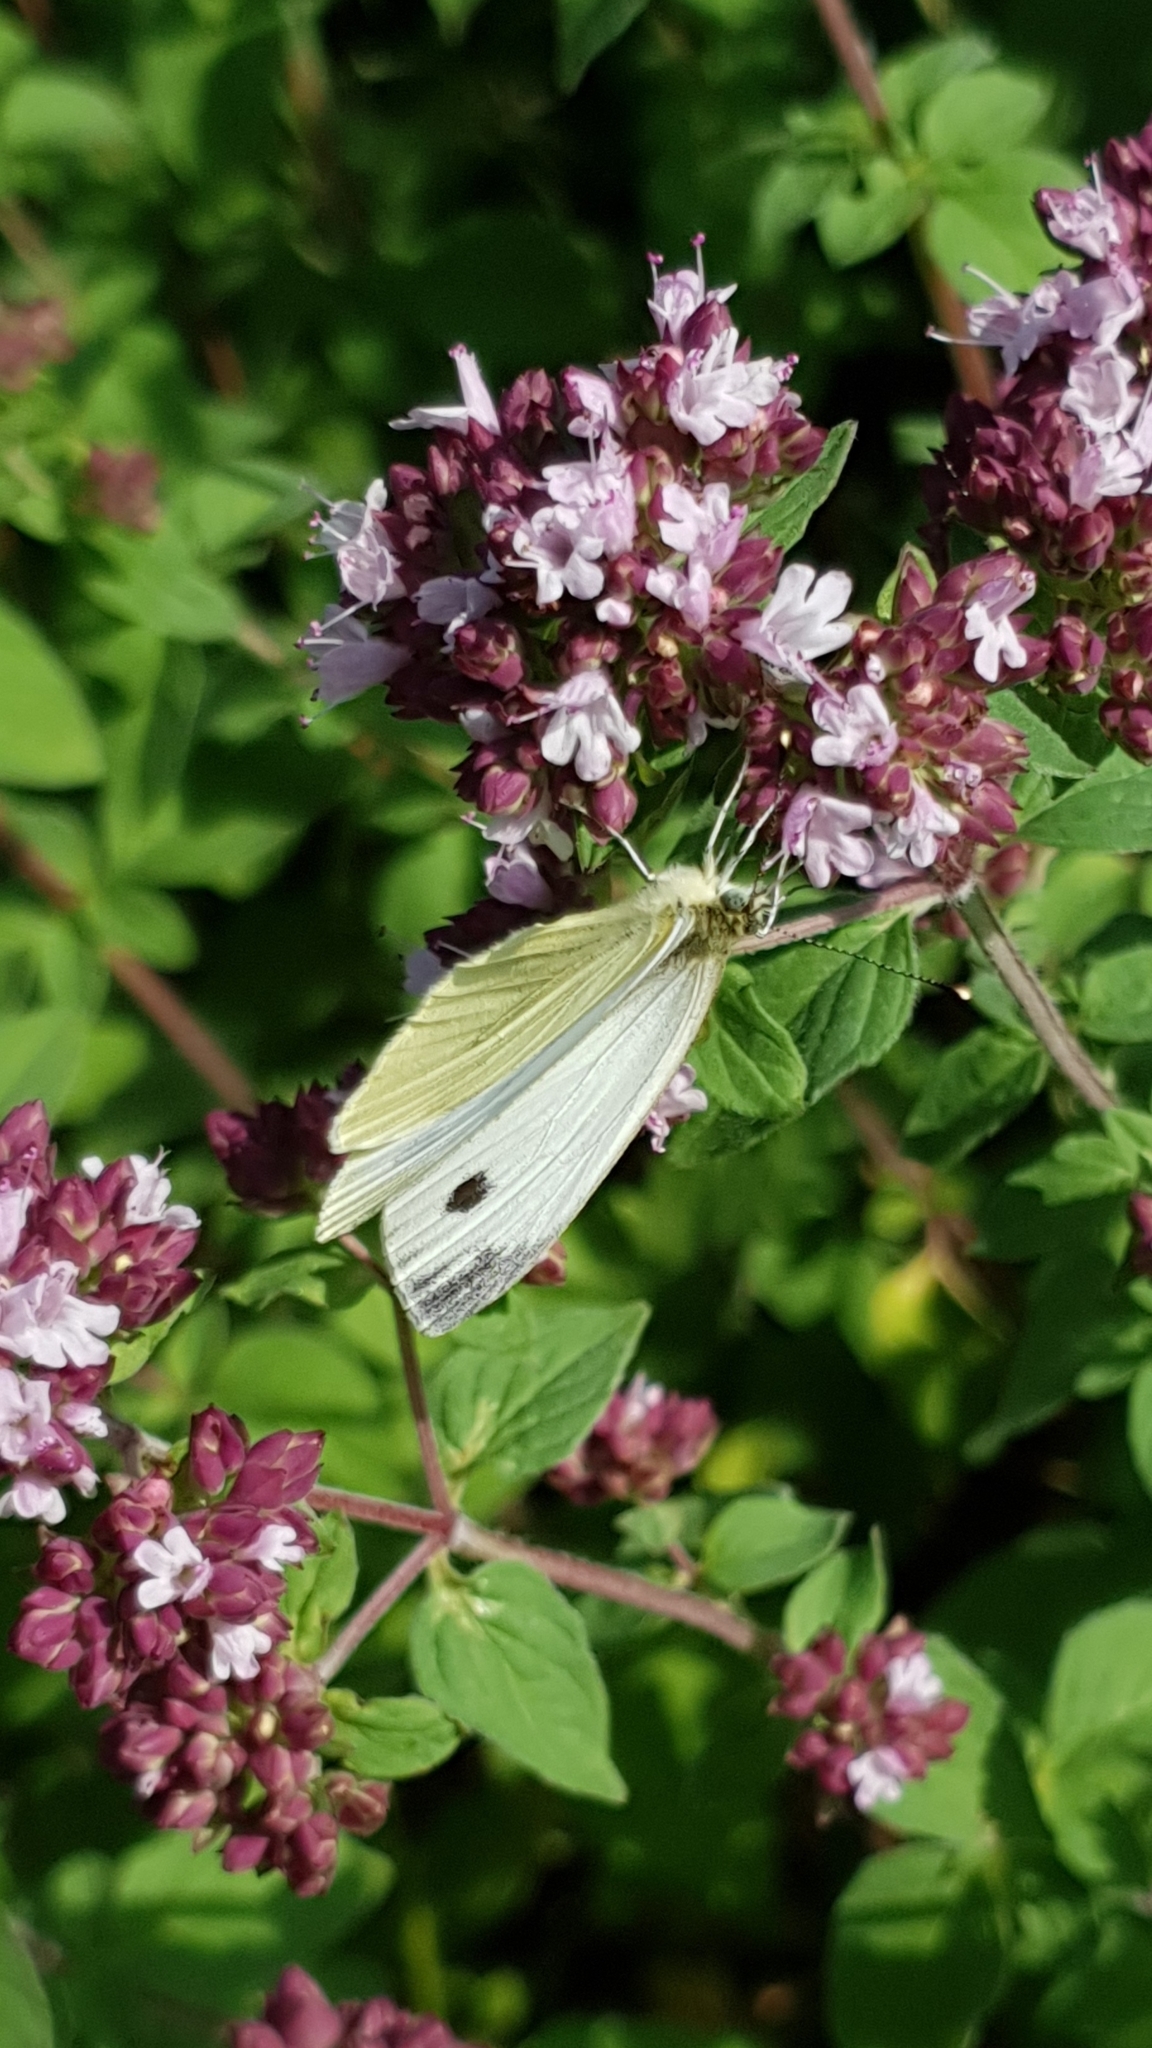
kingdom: Animalia
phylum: Arthropoda
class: Insecta
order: Lepidoptera
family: Pieridae
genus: Pieris
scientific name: Pieris napi
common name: Green-veined white
